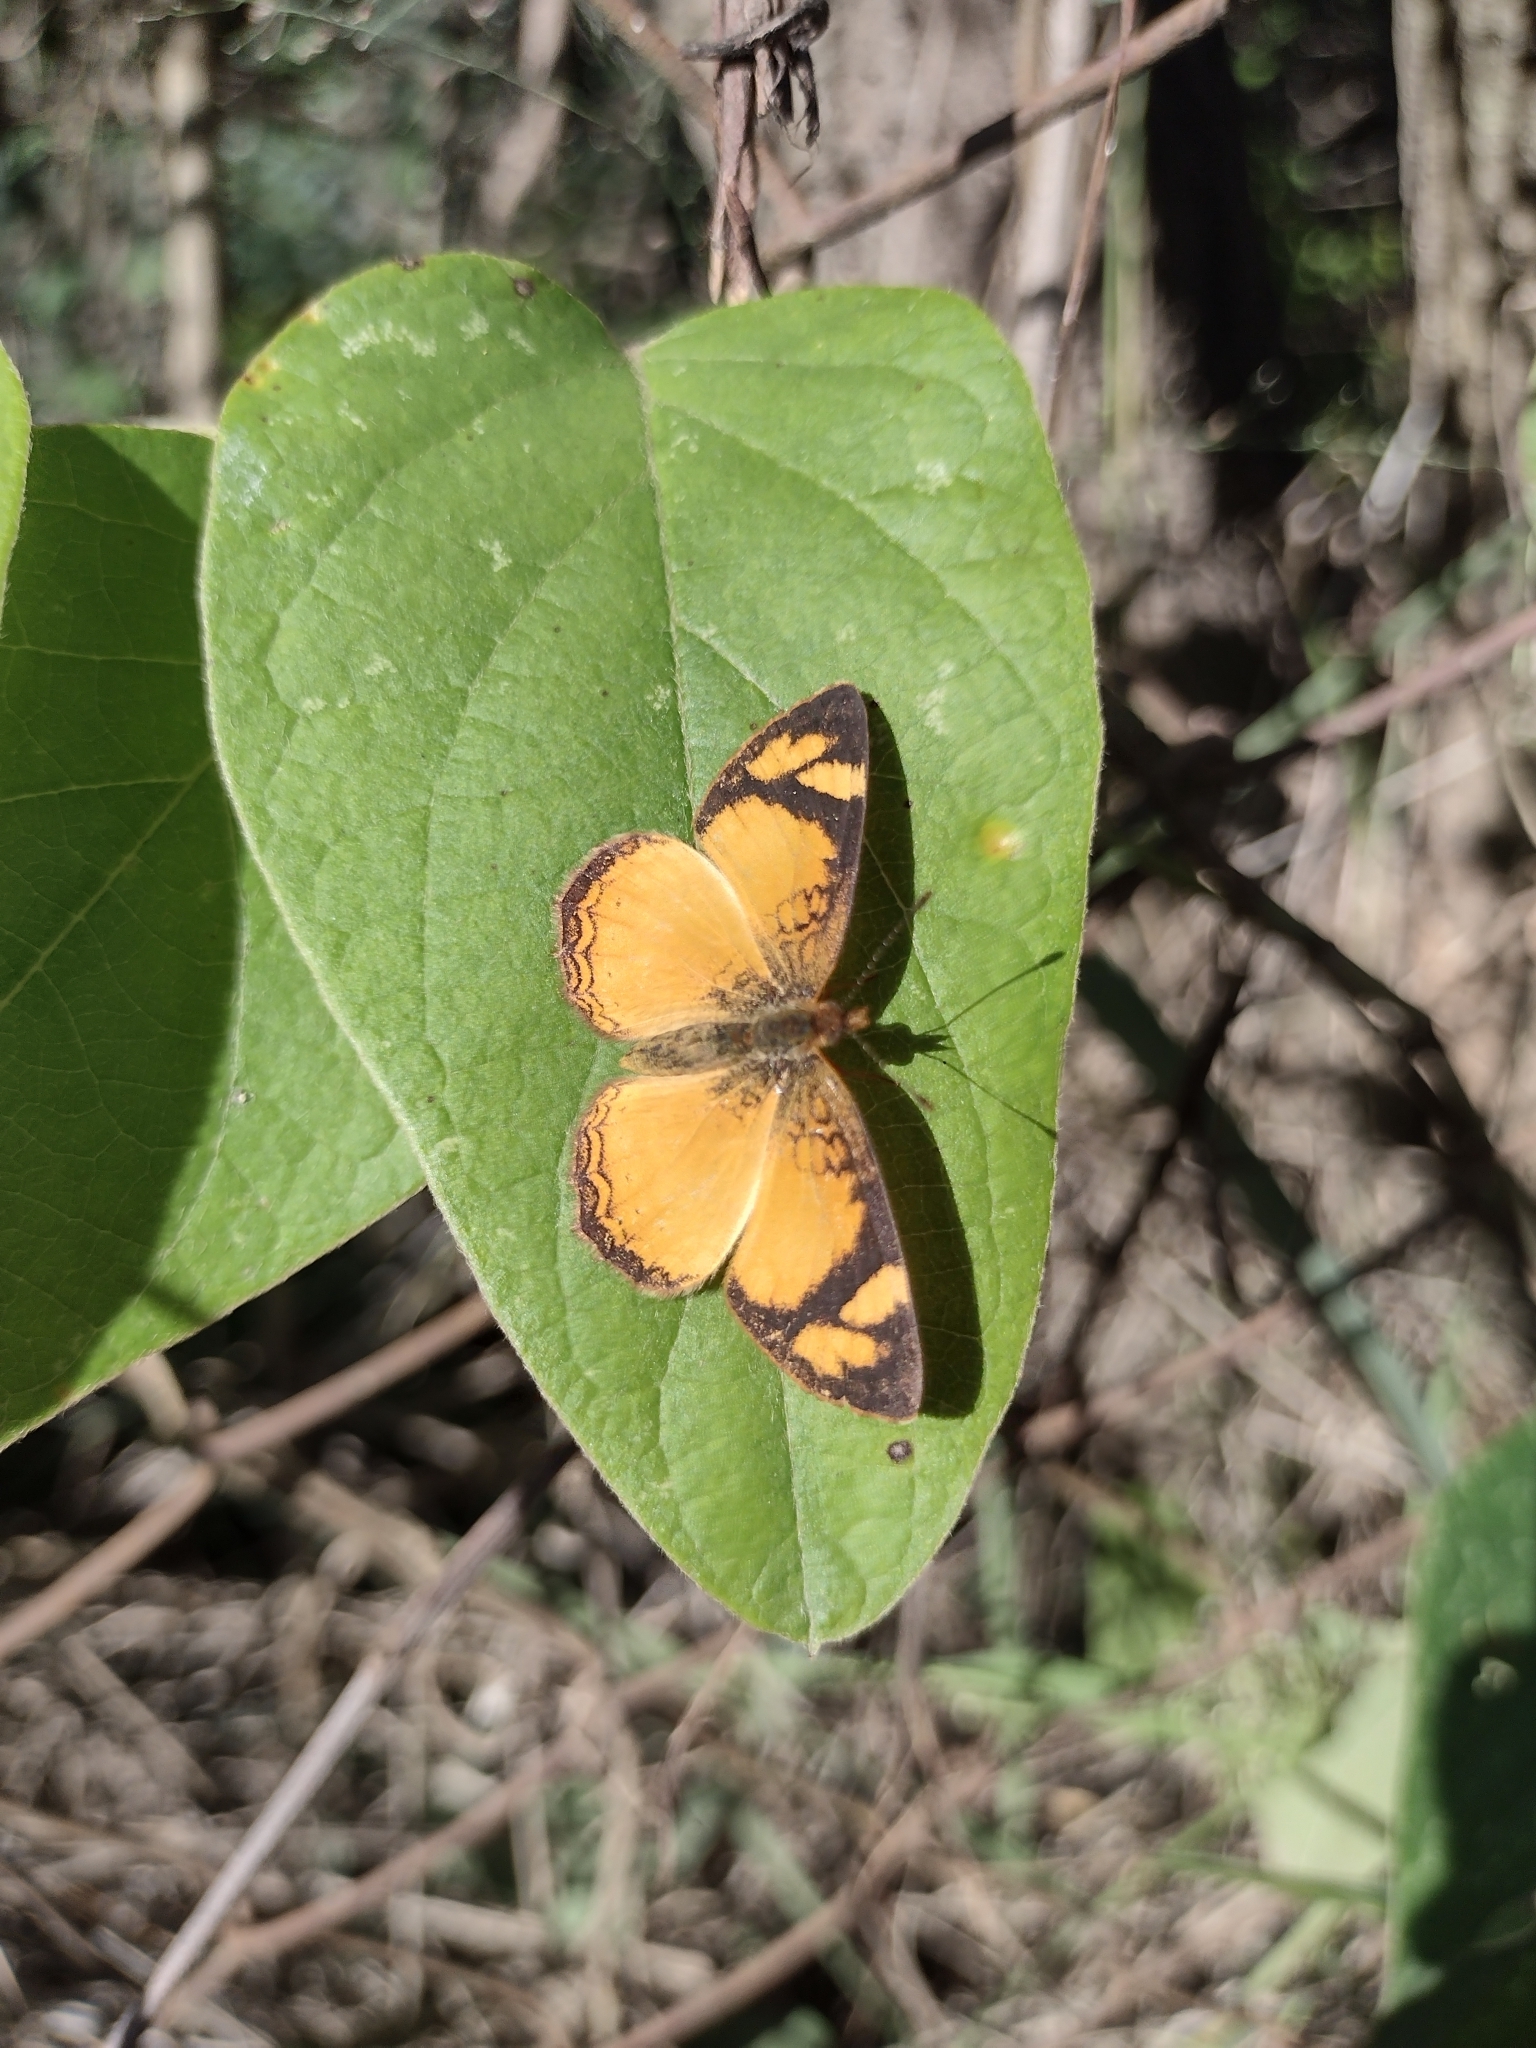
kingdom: Animalia
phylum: Arthropoda
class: Insecta
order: Lepidoptera
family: Nymphalidae
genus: Tegosa
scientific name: Tegosa claudina
